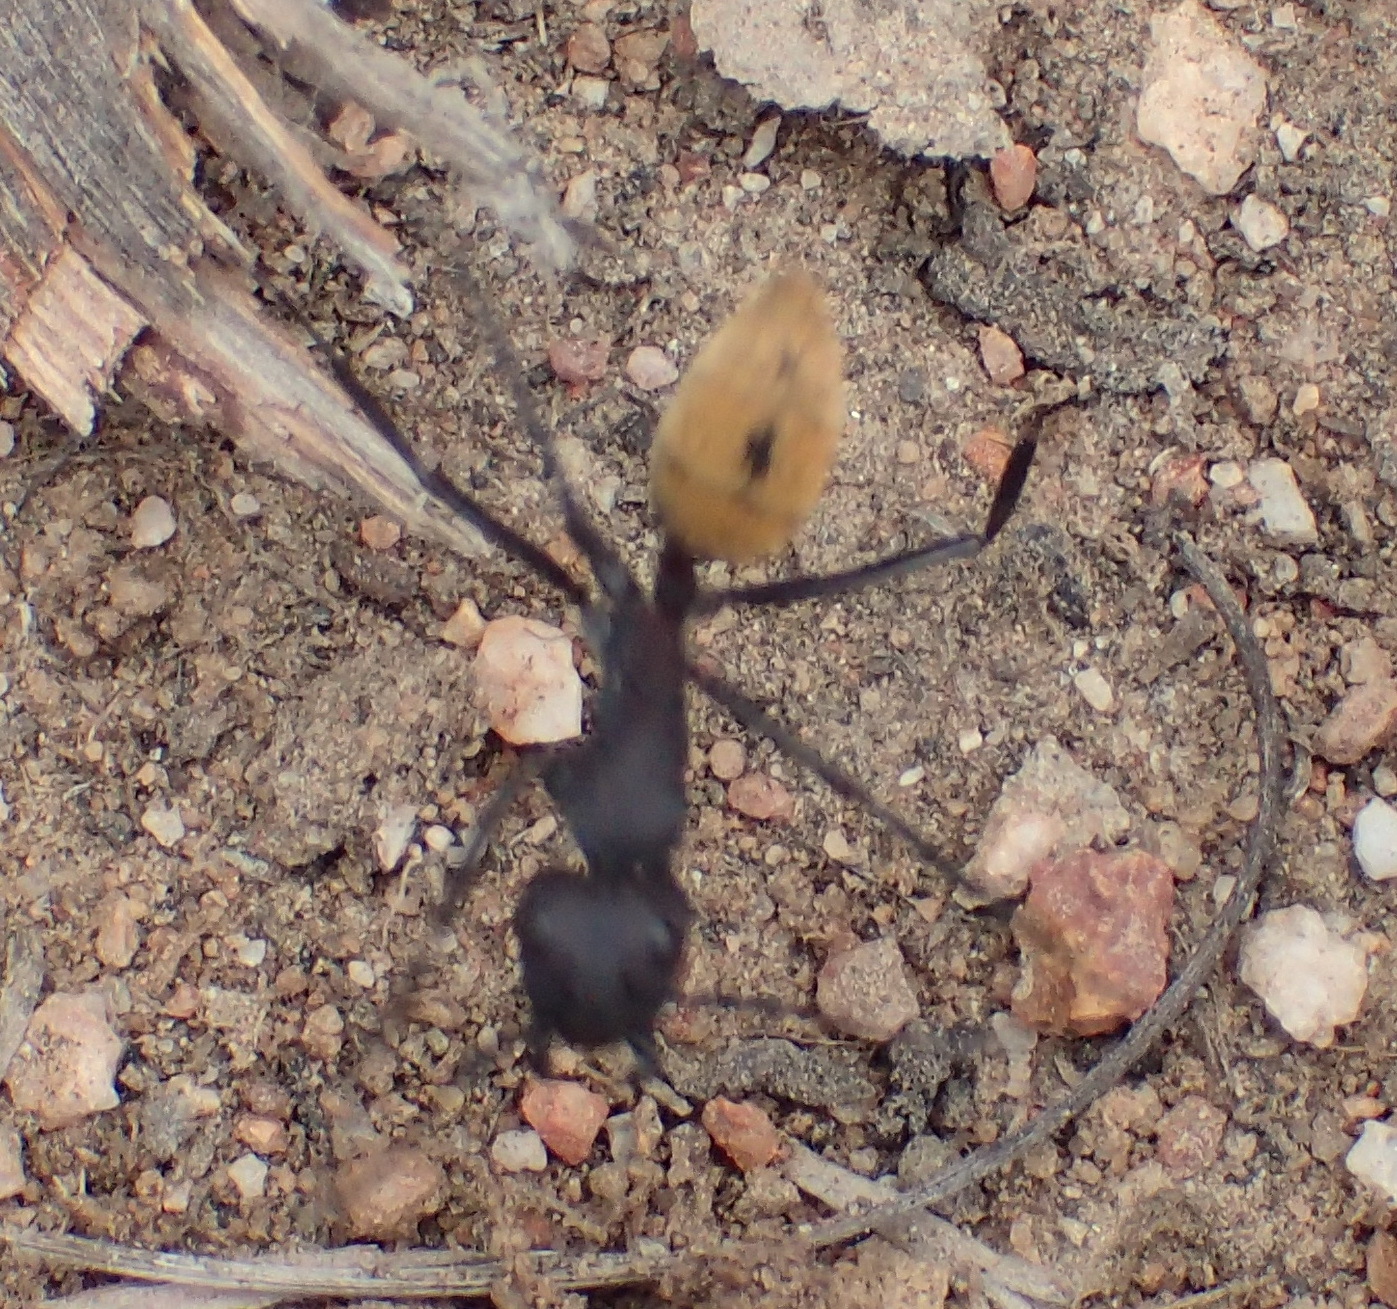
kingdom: Animalia
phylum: Arthropoda
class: Insecta
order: Hymenoptera
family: Formicidae
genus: Camponotus
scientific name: Camponotus fulvopilosus
